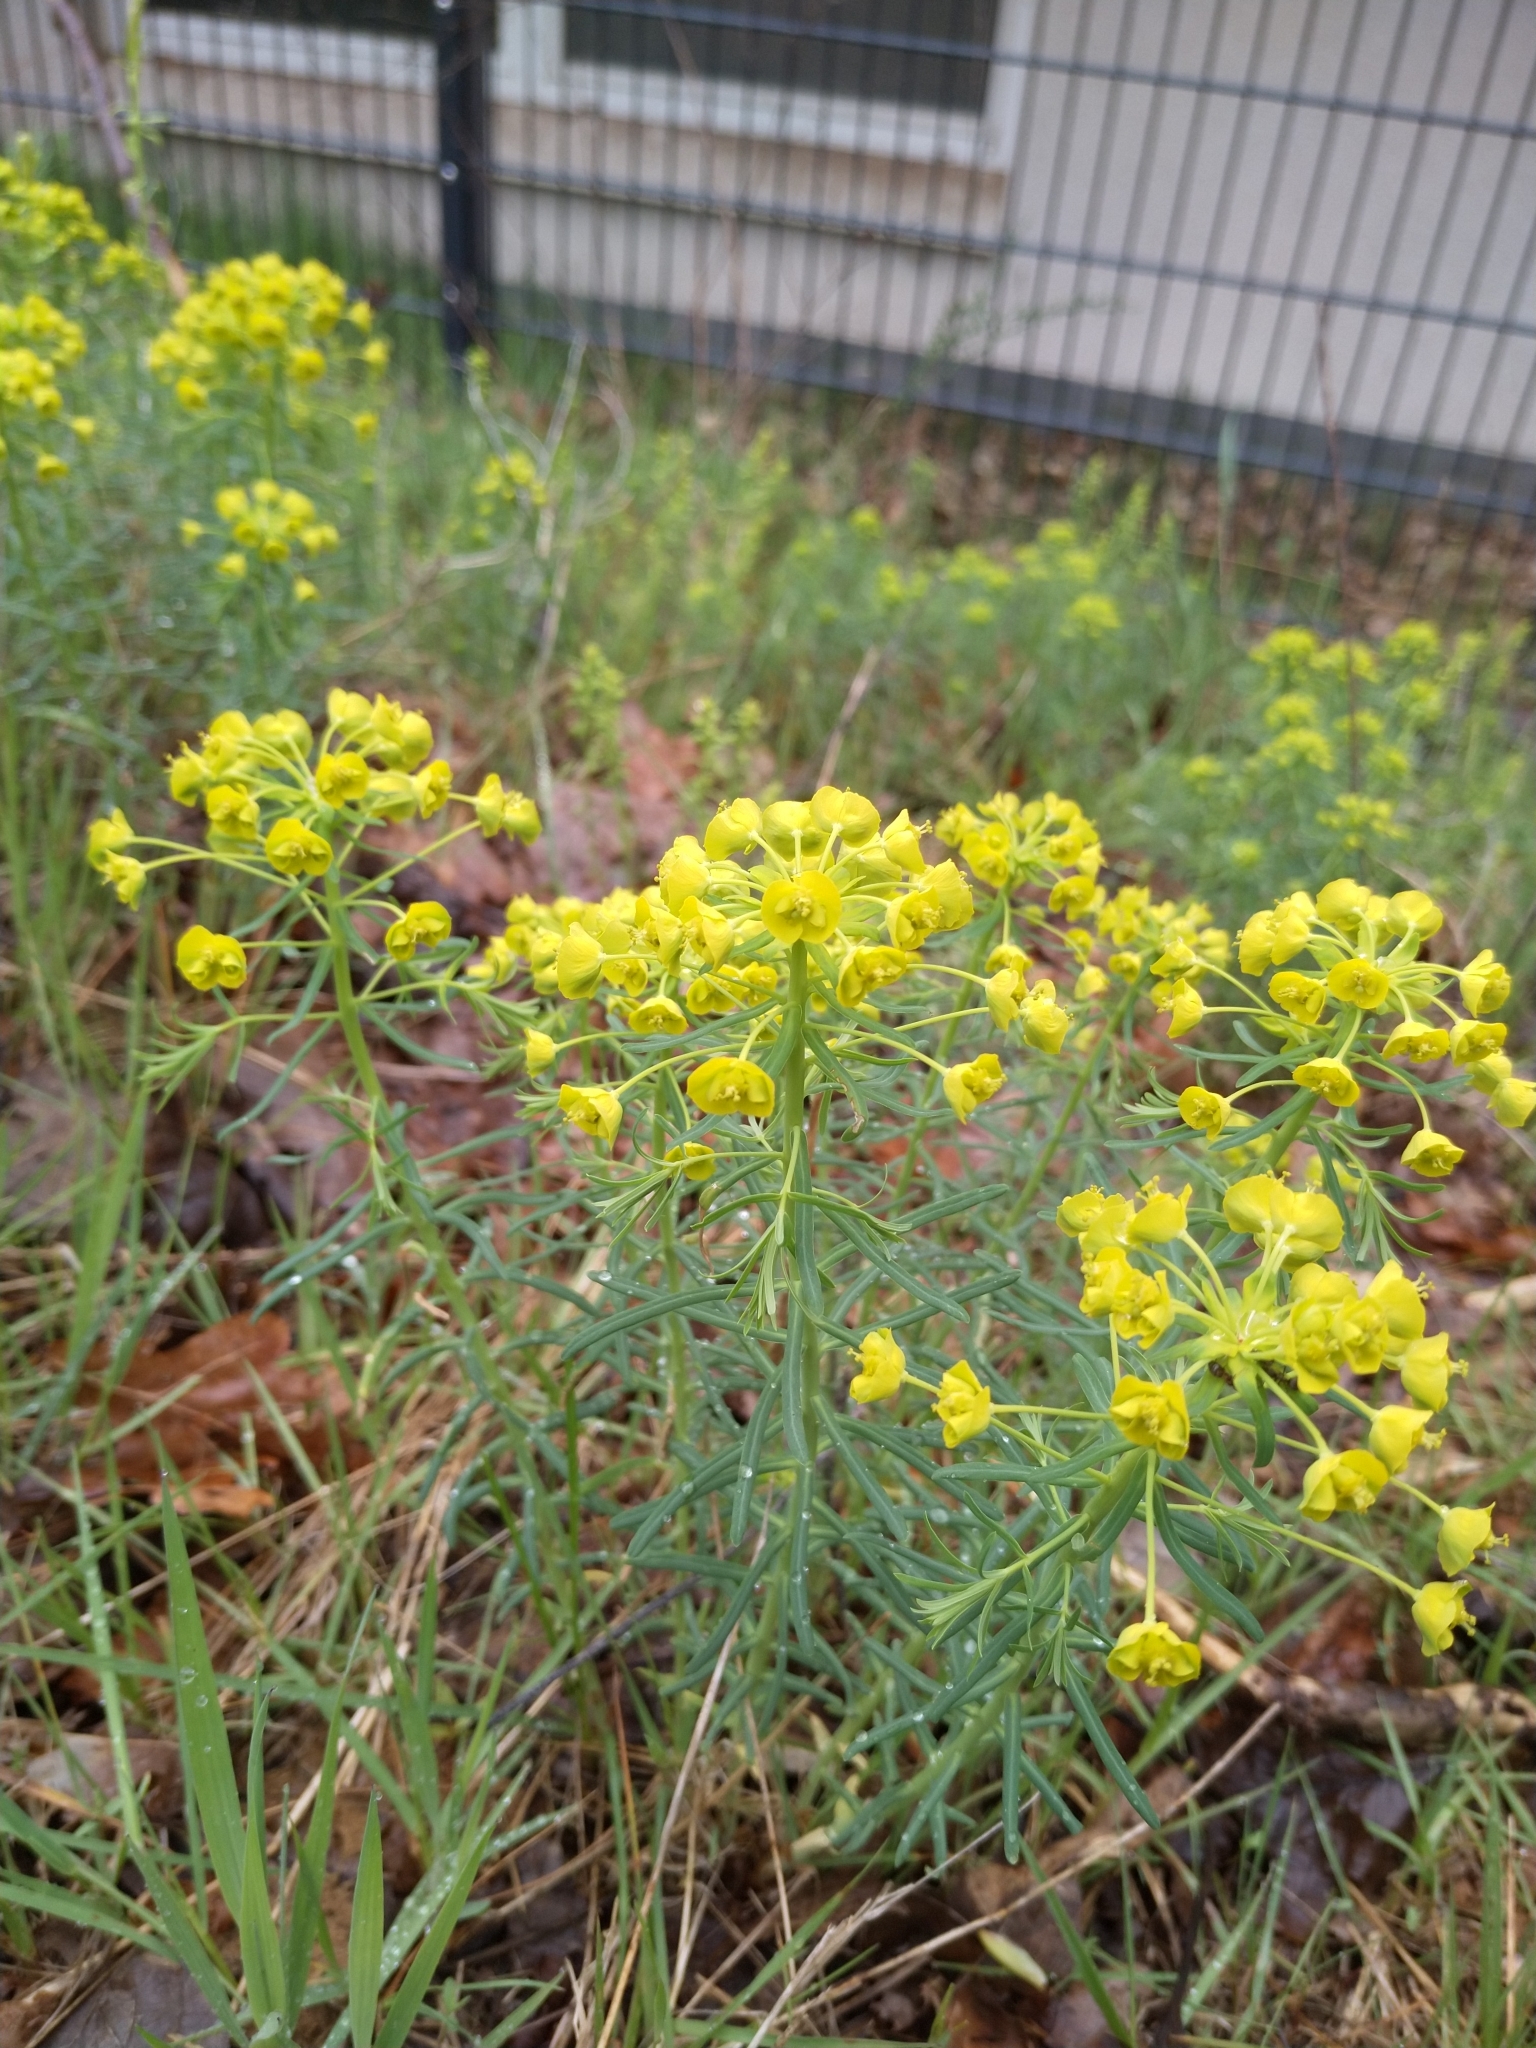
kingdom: Plantae
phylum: Tracheophyta
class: Magnoliopsida
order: Malpighiales
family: Euphorbiaceae
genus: Euphorbia
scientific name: Euphorbia cyparissias
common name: Cypress spurge
